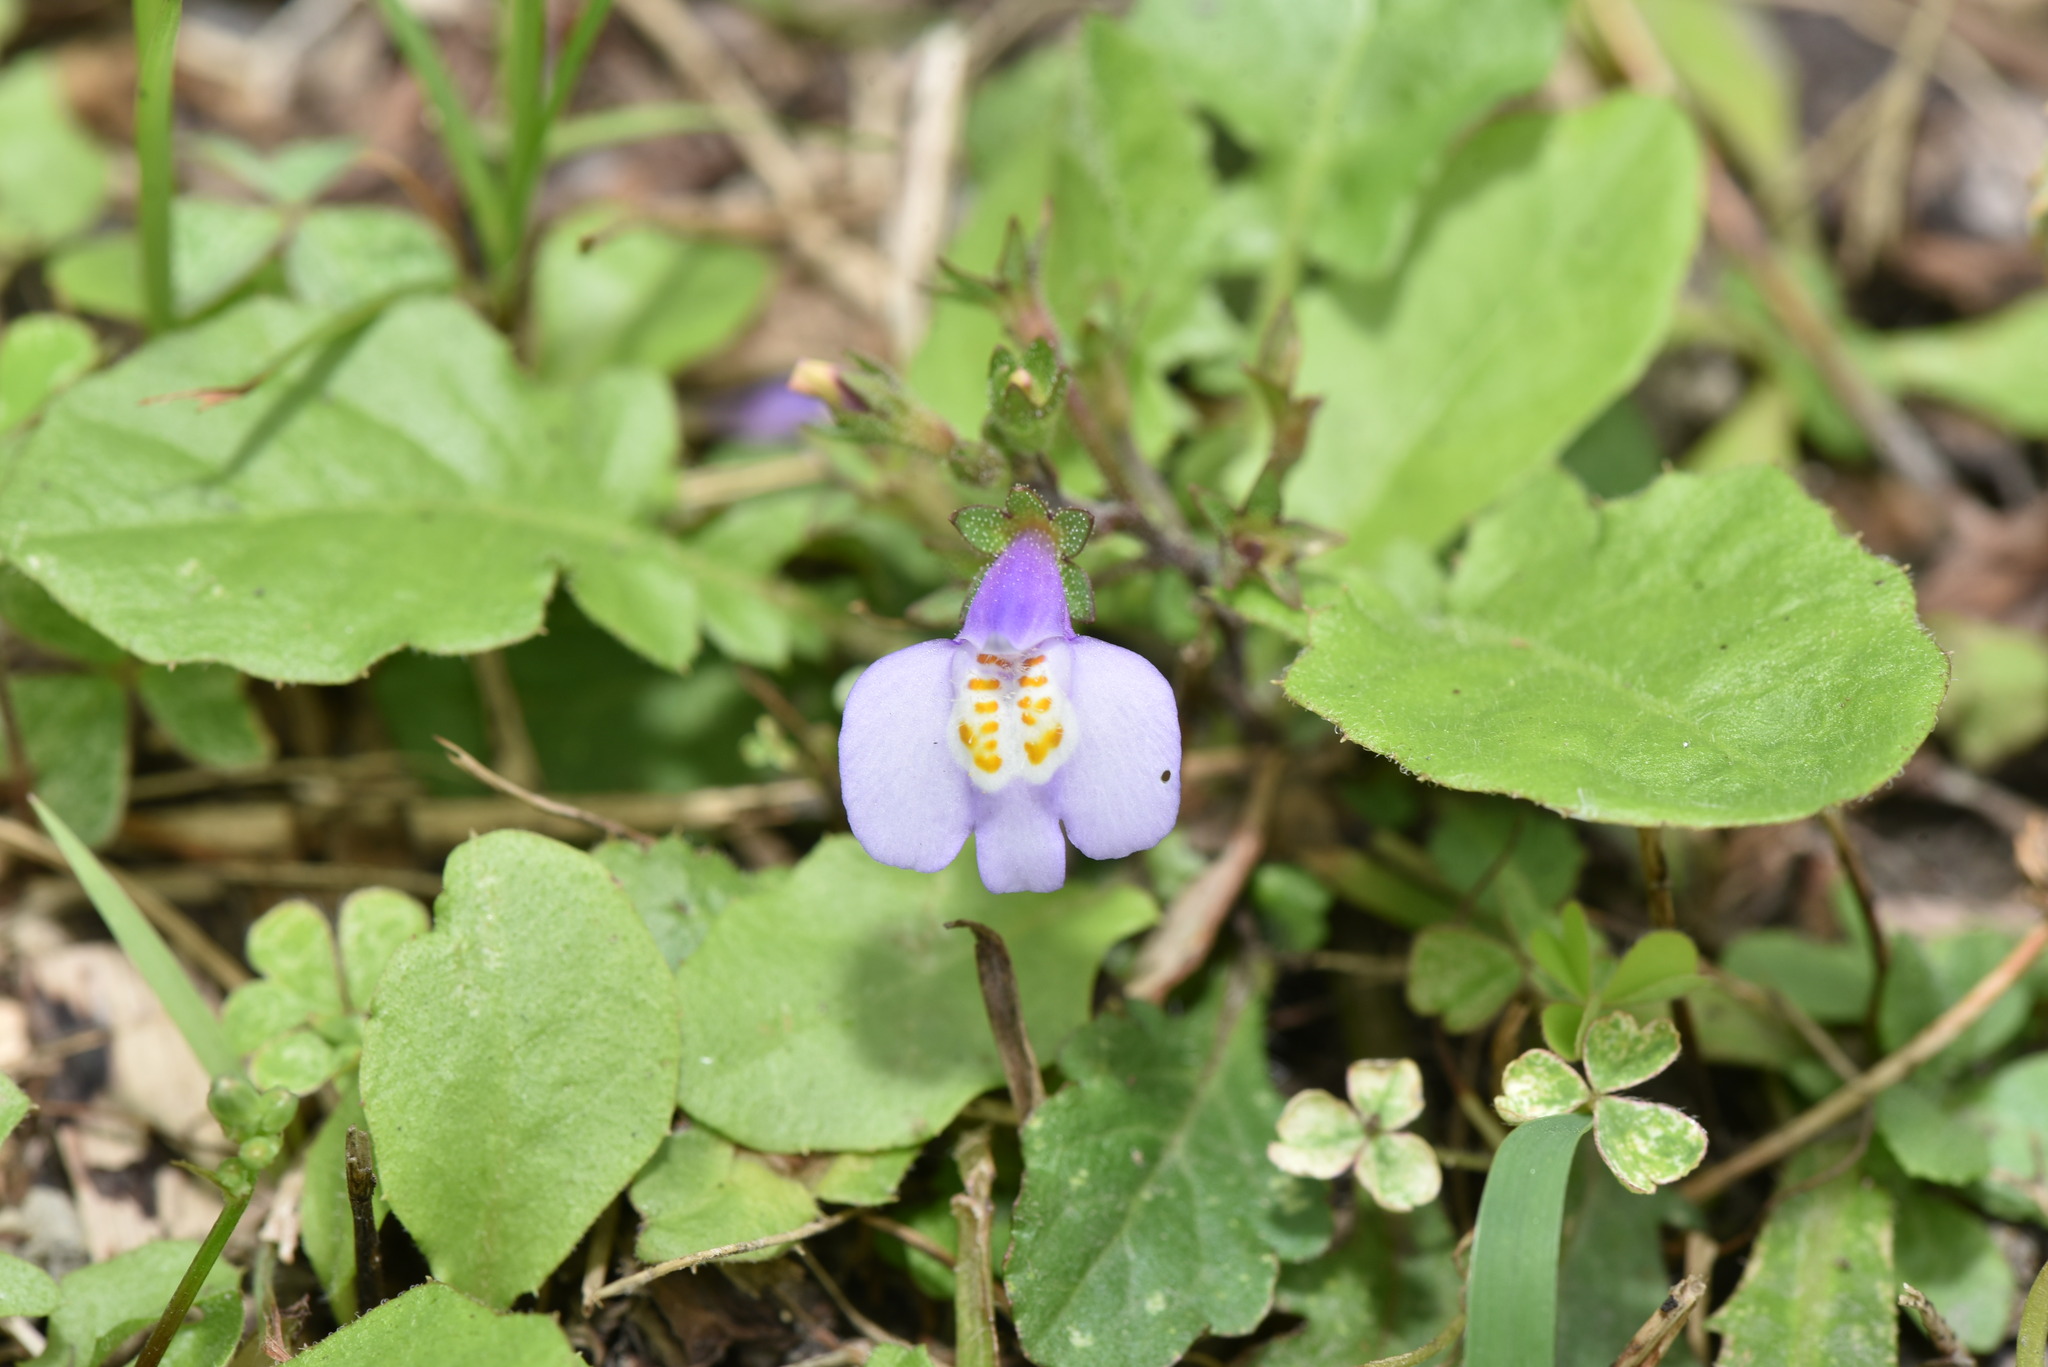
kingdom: Plantae
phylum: Tracheophyta
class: Magnoliopsida
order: Lamiales
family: Mazaceae
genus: Mazus
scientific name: Mazus fauriei
